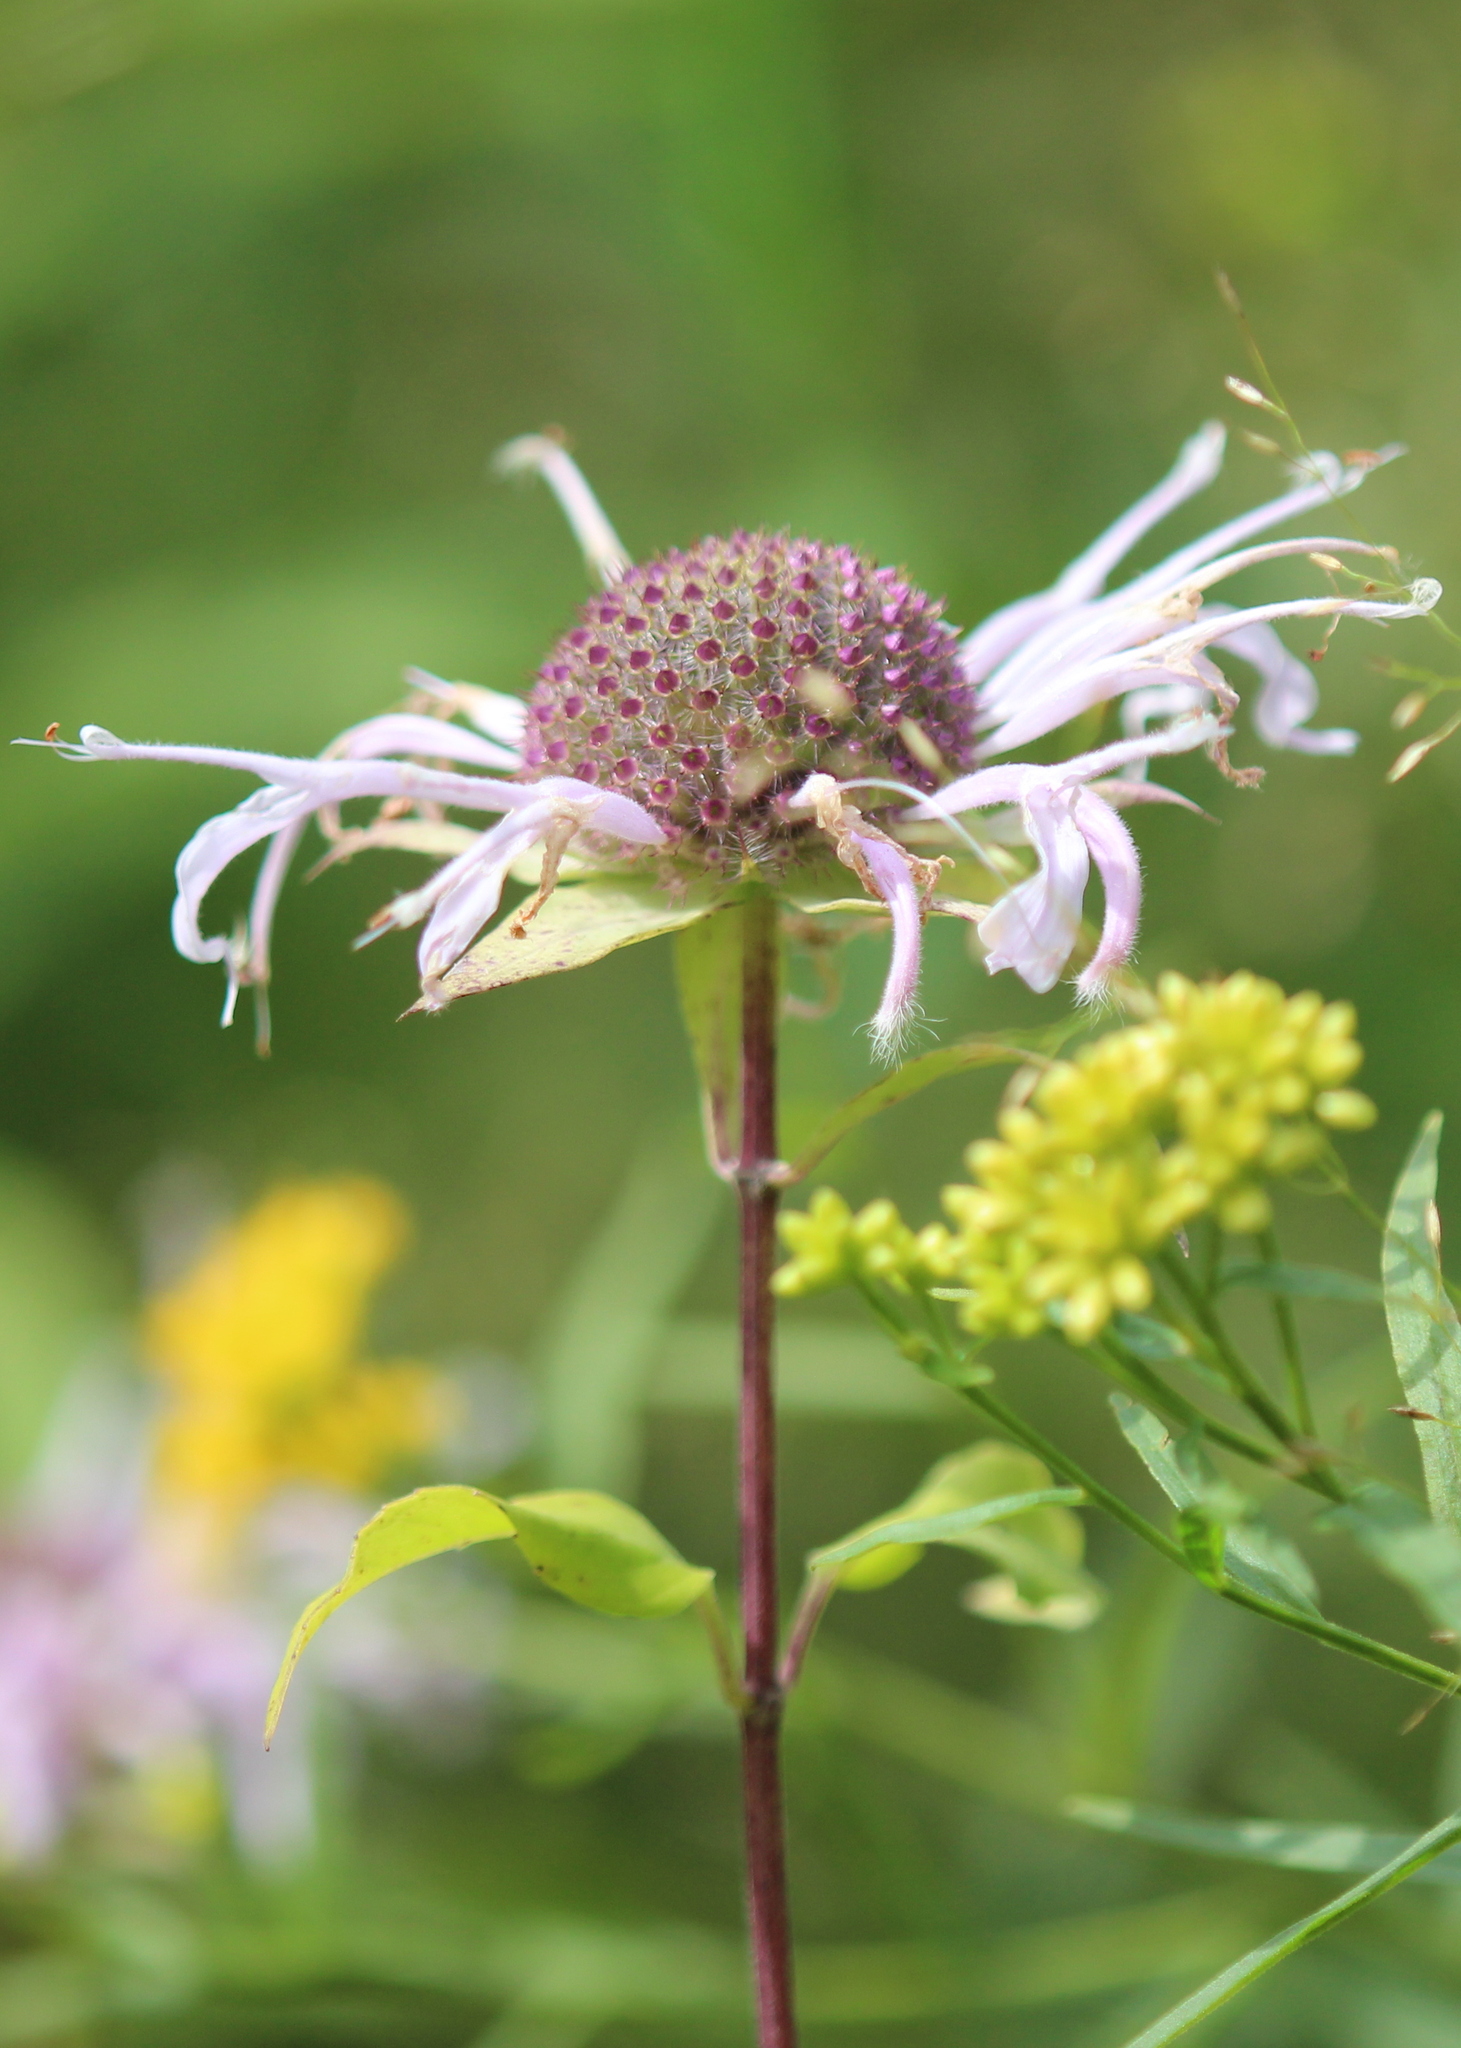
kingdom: Plantae
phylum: Tracheophyta
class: Magnoliopsida
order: Lamiales
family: Lamiaceae
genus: Monarda
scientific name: Monarda fistulosa
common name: Purple beebalm
